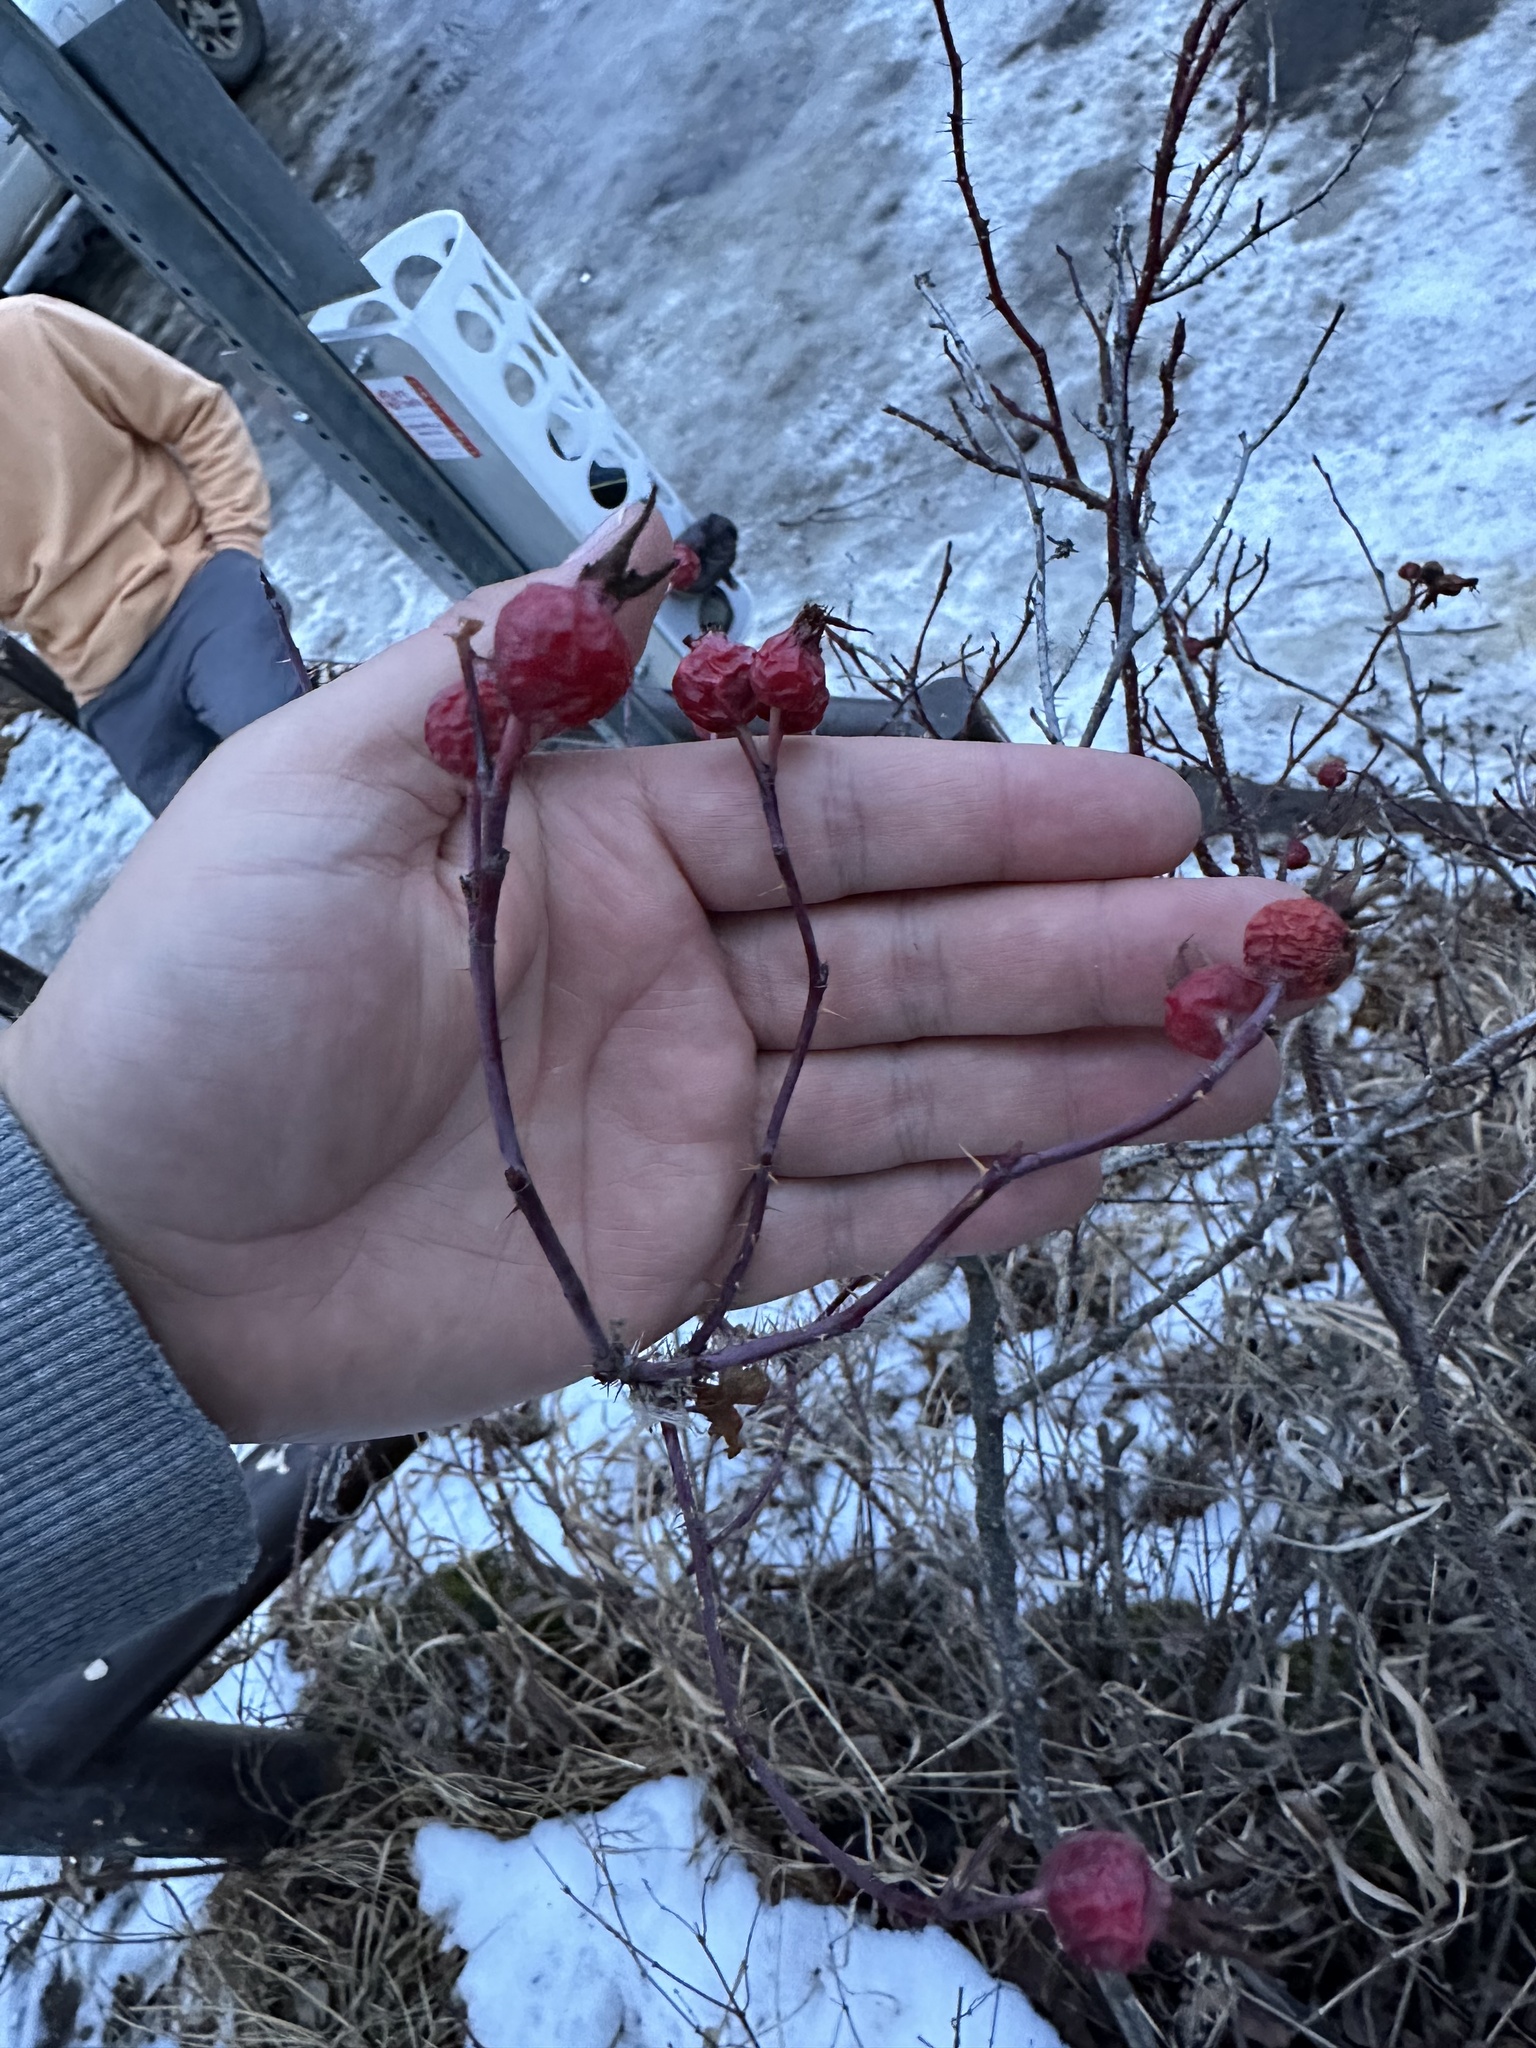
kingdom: Plantae
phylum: Tracheophyta
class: Magnoliopsida
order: Rosales
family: Rosaceae
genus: Rosa
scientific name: Rosa woodsii
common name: Woods's rose
